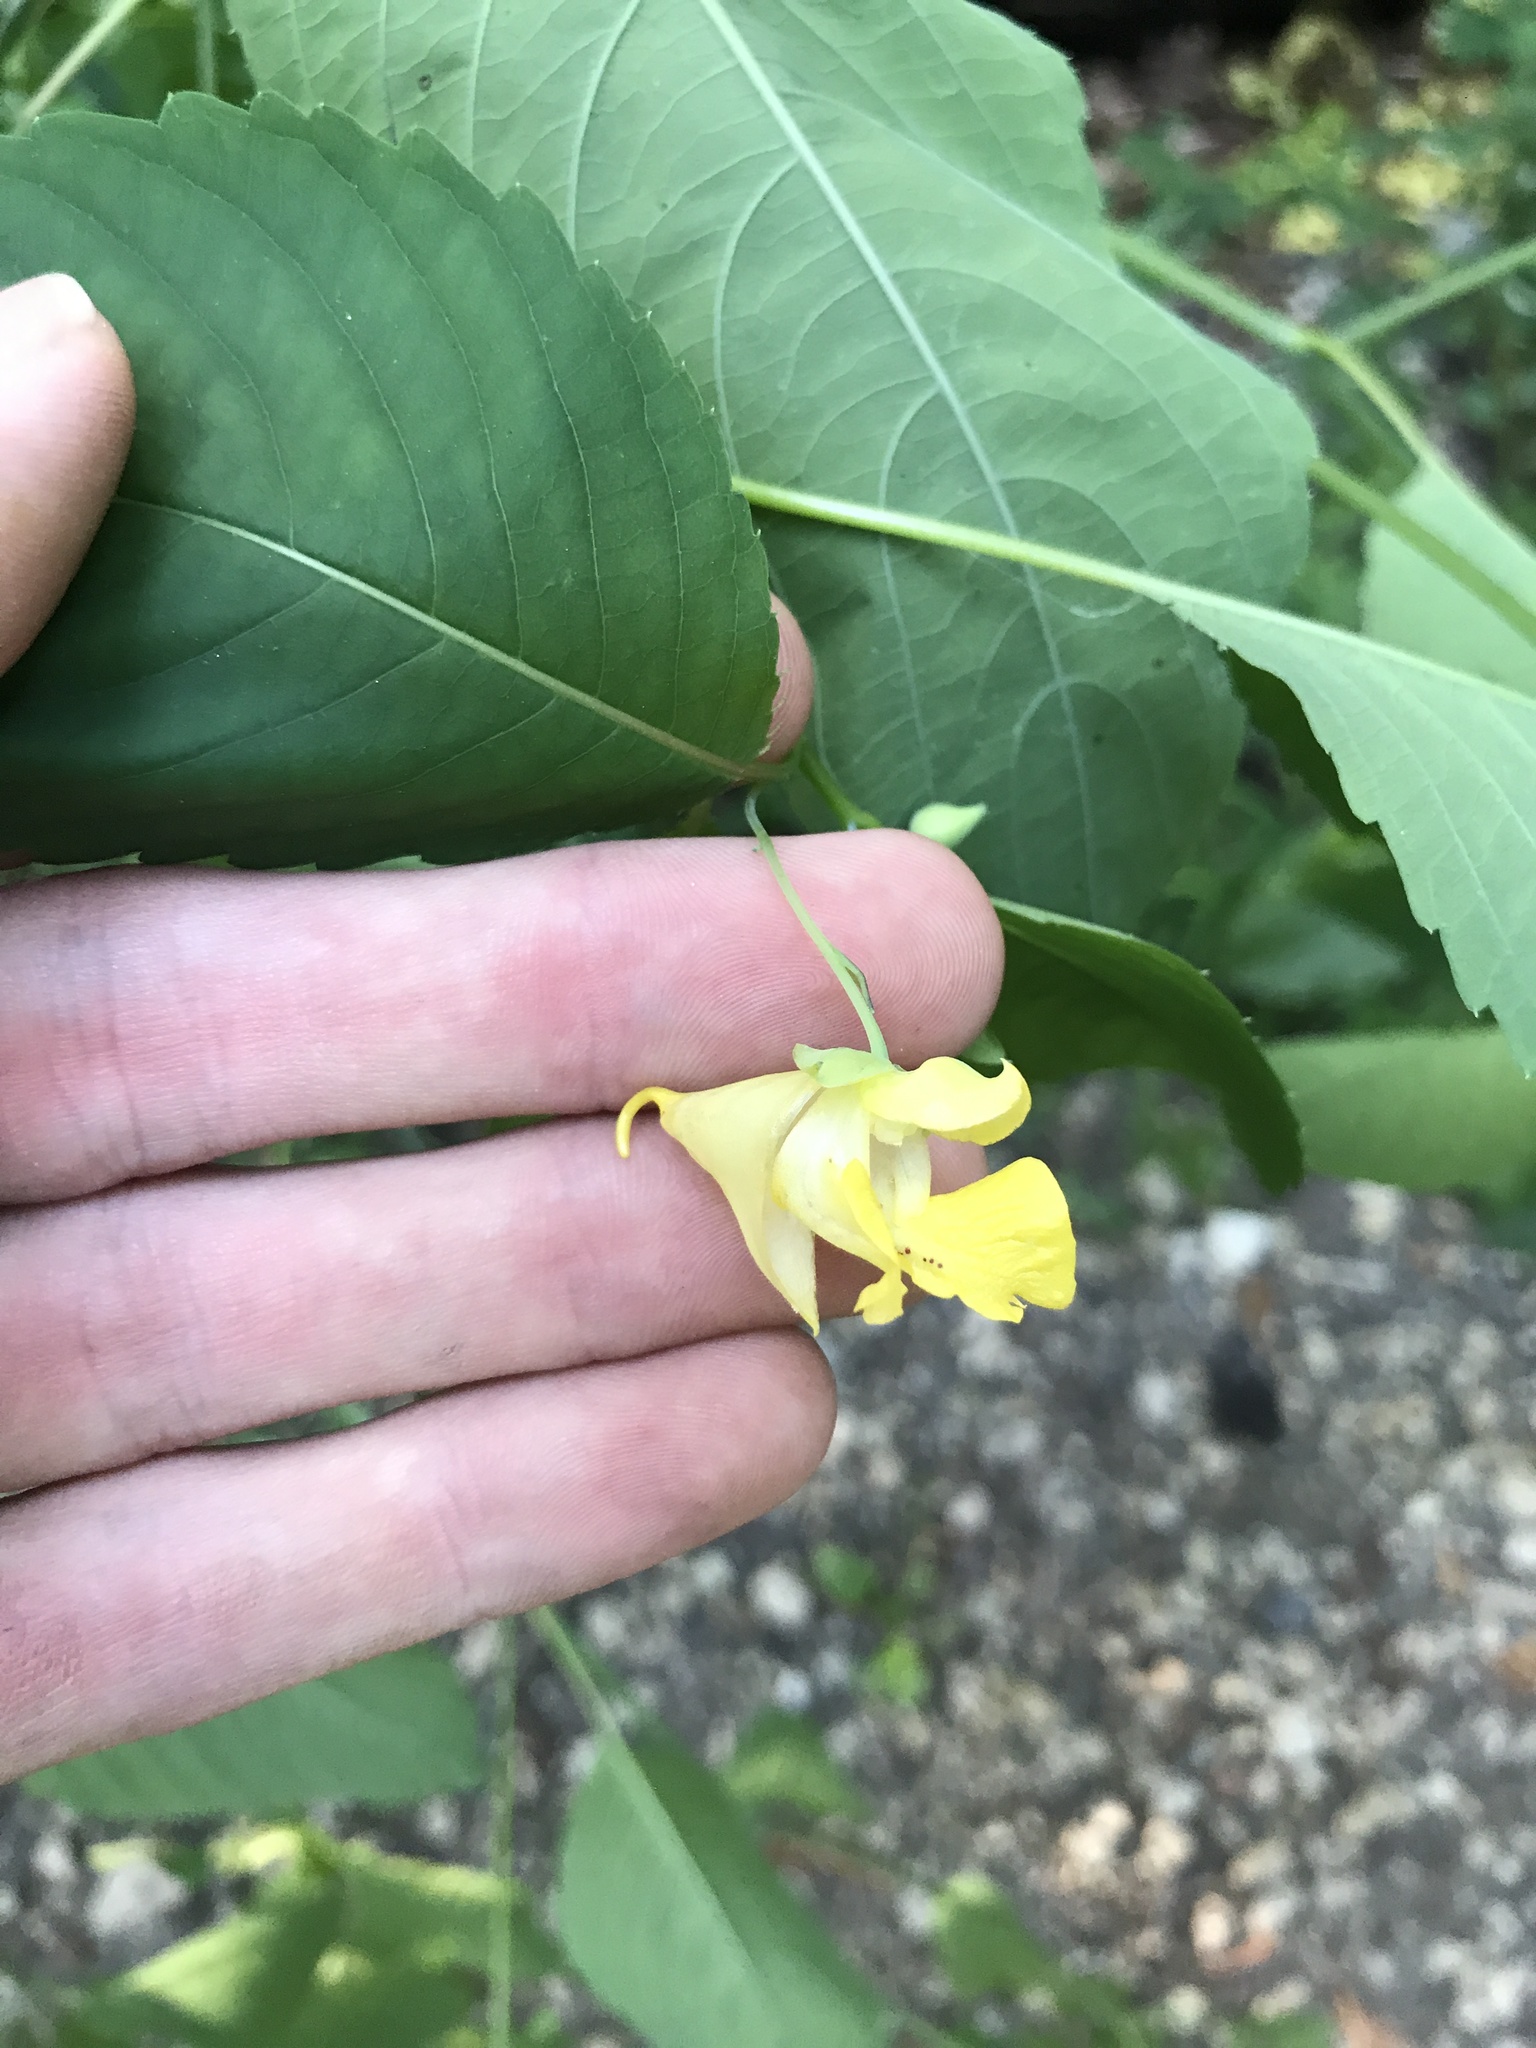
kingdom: Plantae
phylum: Tracheophyta
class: Magnoliopsida
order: Ericales
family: Balsaminaceae
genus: Impatiens
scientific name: Impatiens pallida
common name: Pale snapweed
